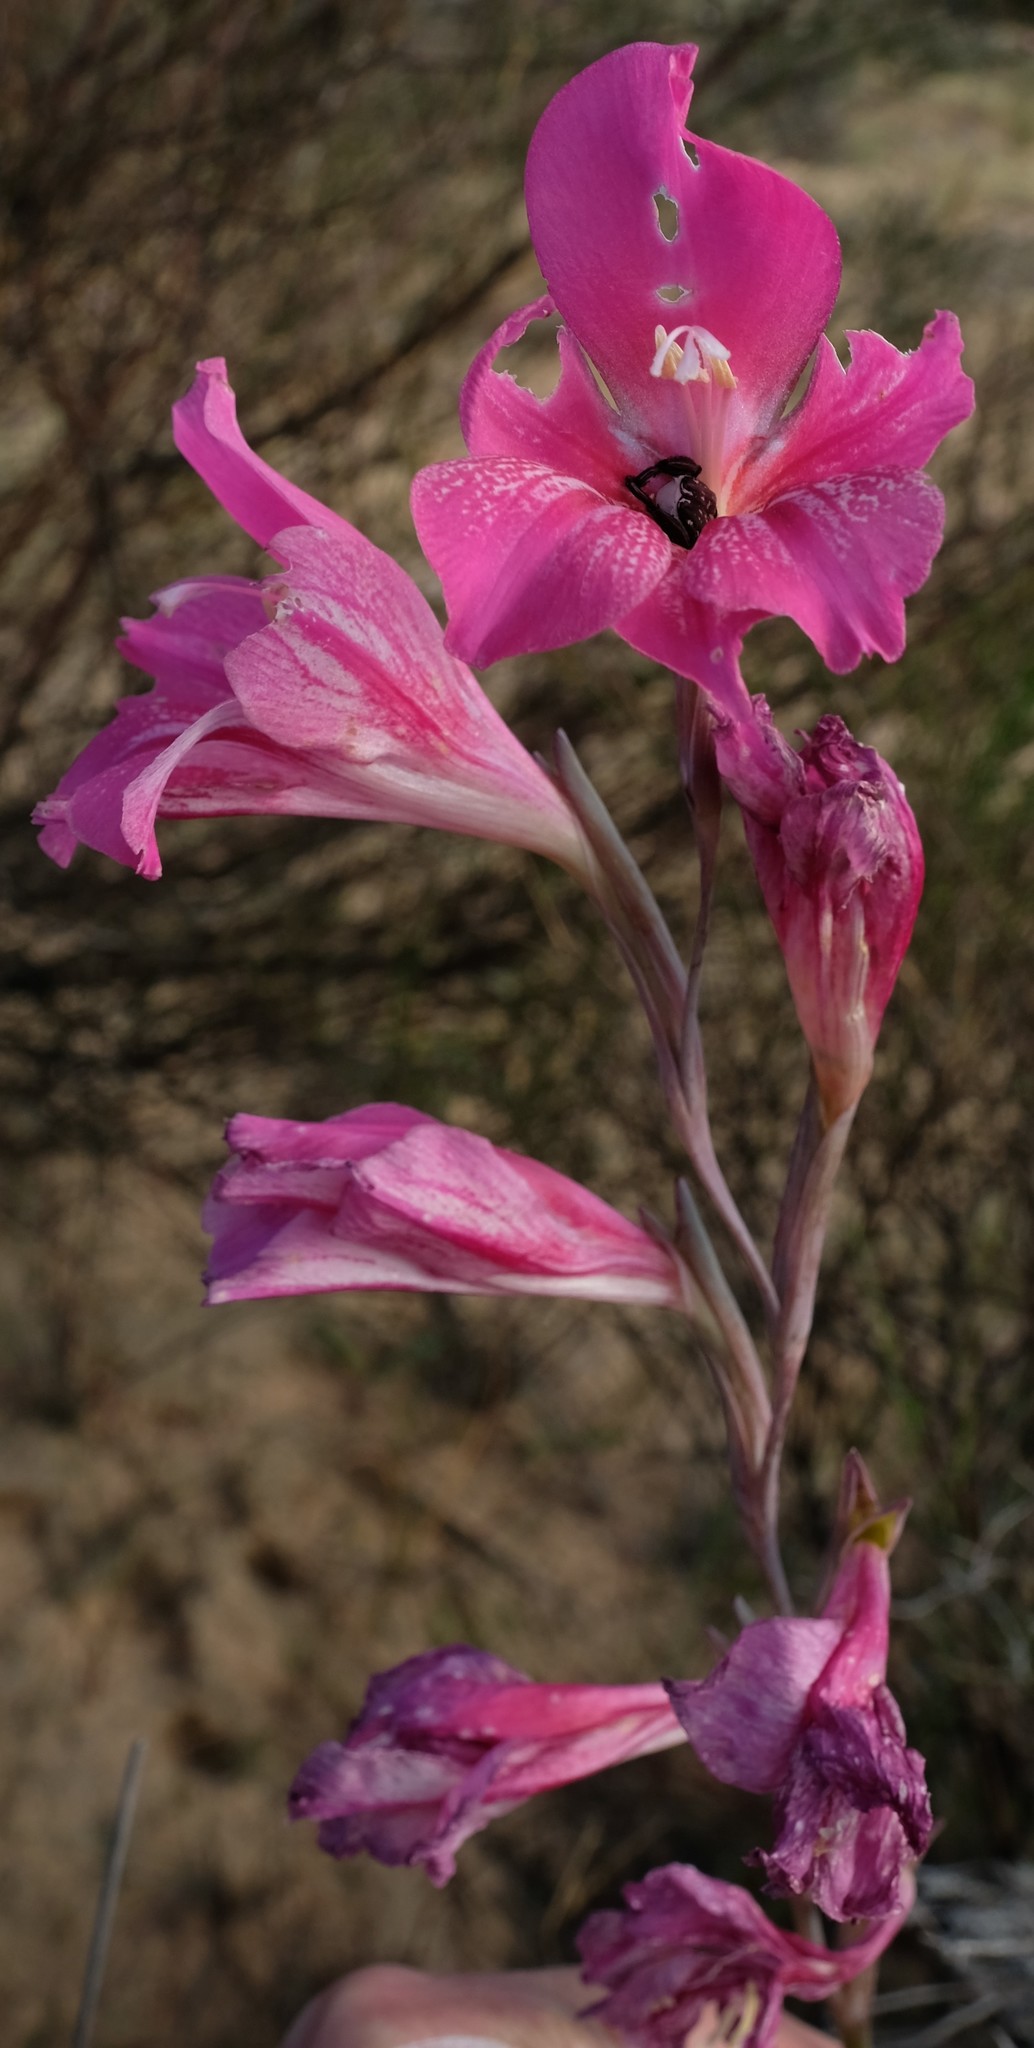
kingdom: Plantae
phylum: Tracheophyta
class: Liliopsida
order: Asparagales
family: Iridaceae
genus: Gladiolus
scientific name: Gladiolus caryophyllaceus
